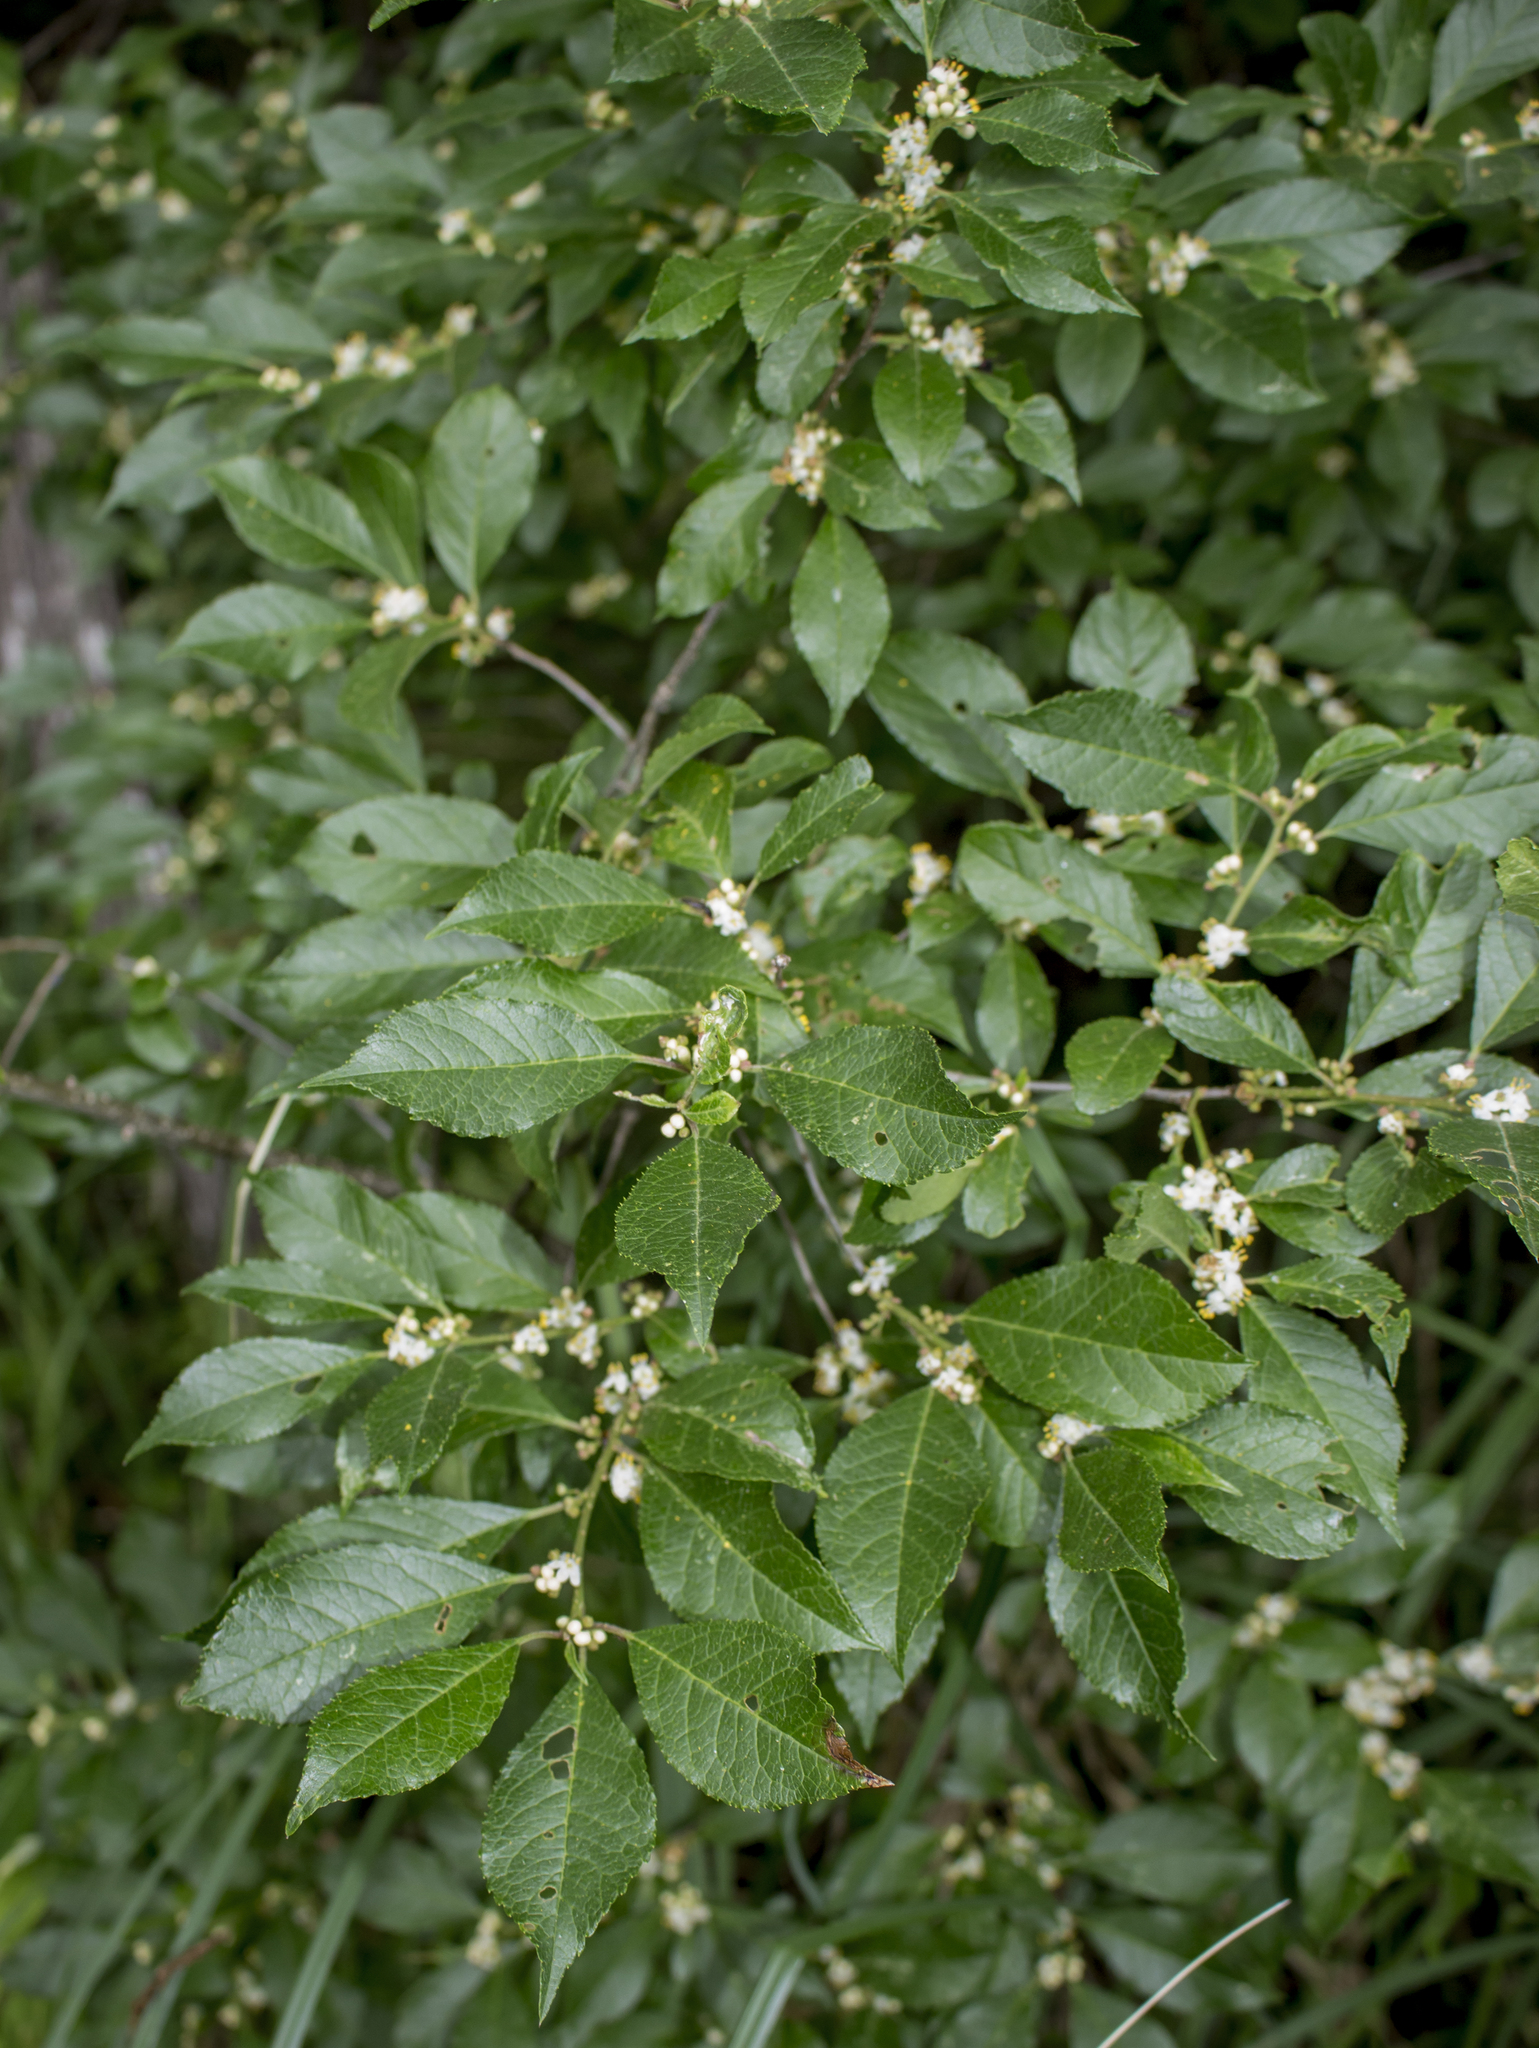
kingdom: Plantae
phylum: Tracheophyta
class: Magnoliopsida
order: Aquifoliales
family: Aquifoliaceae
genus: Ilex
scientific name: Ilex verticillata
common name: Virginia winterberry
